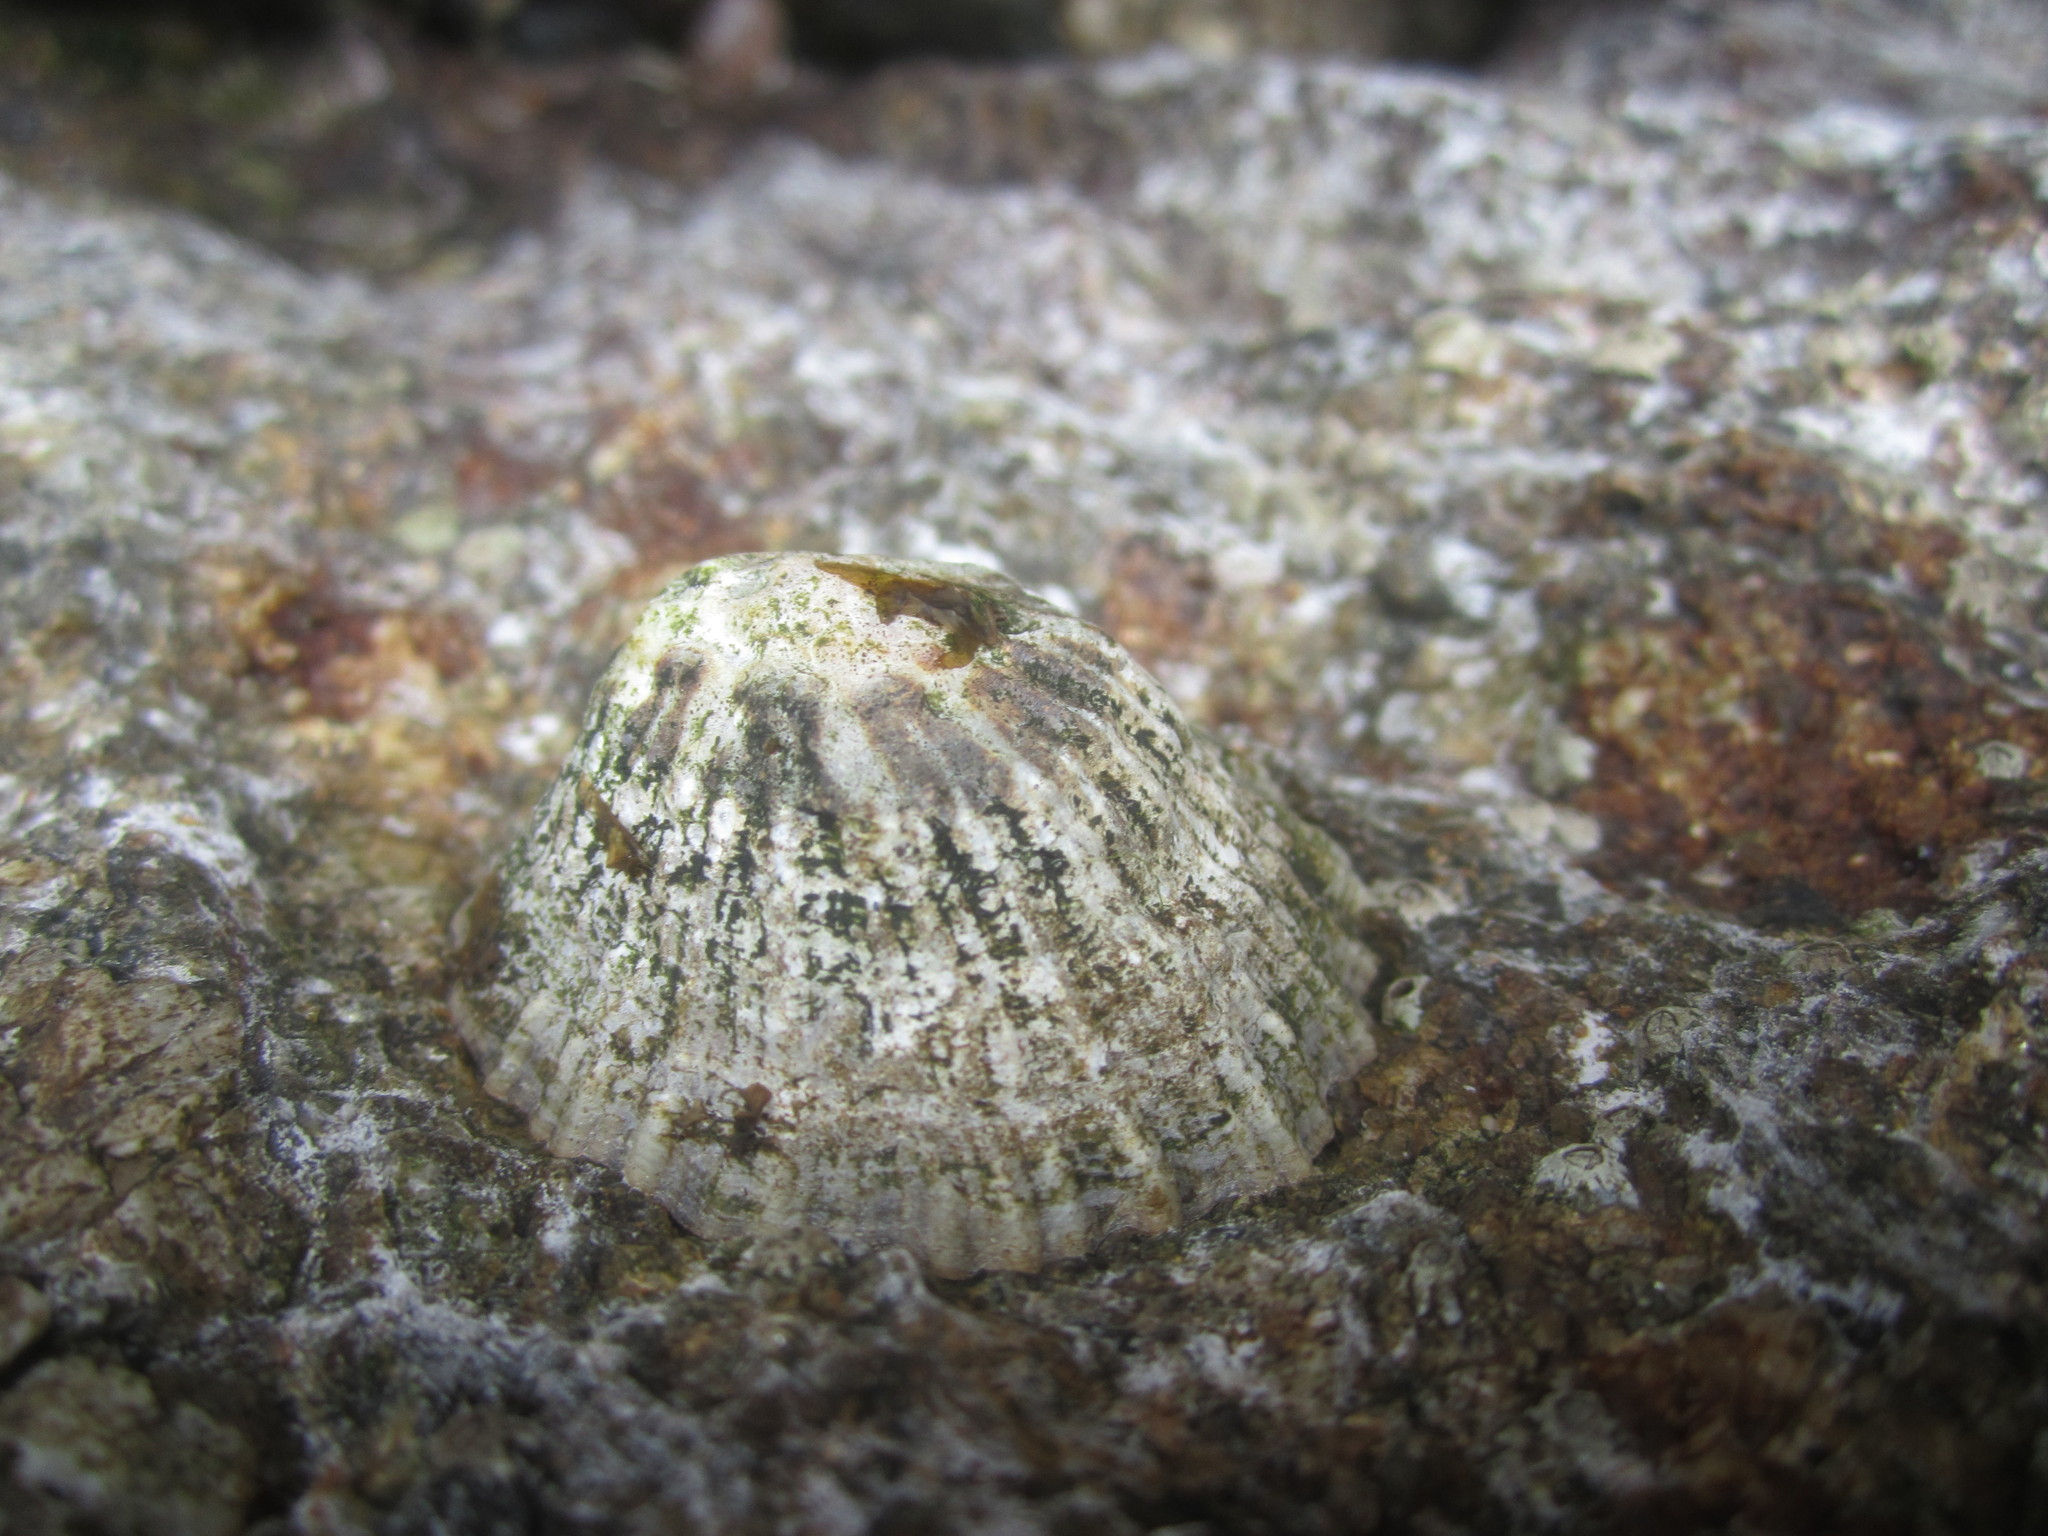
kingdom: Animalia
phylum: Mollusca
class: Gastropoda
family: Patellidae
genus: Patella
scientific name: Patella vulgata
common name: Common limpet
